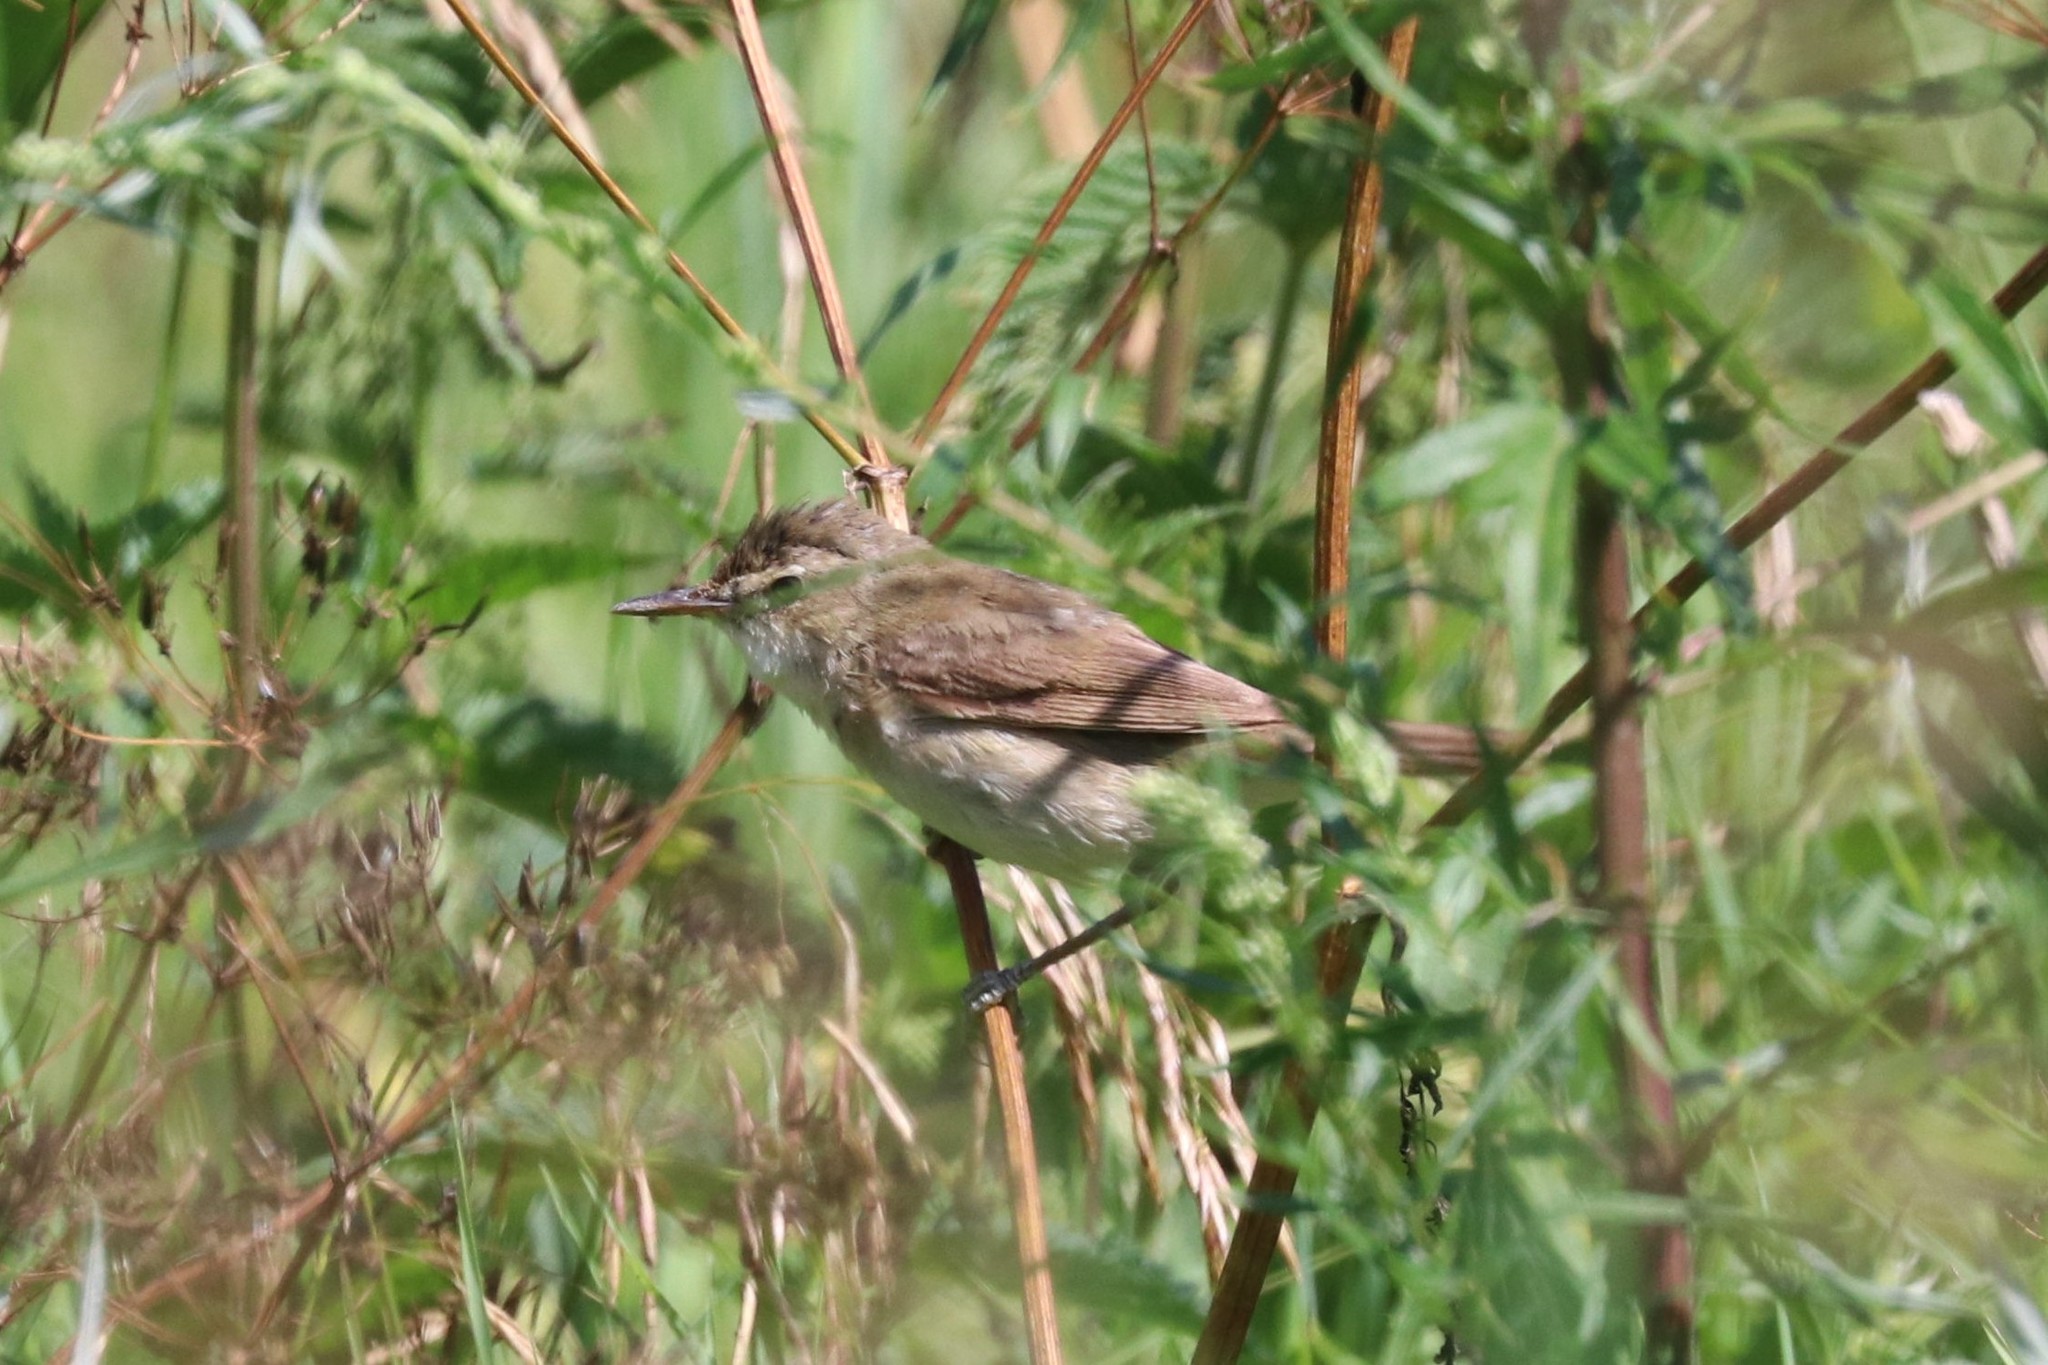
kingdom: Animalia
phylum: Chordata
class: Aves
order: Passeriformes
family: Acrocephalidae
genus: Iduna
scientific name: Iduna caligata
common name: Booted warbler
